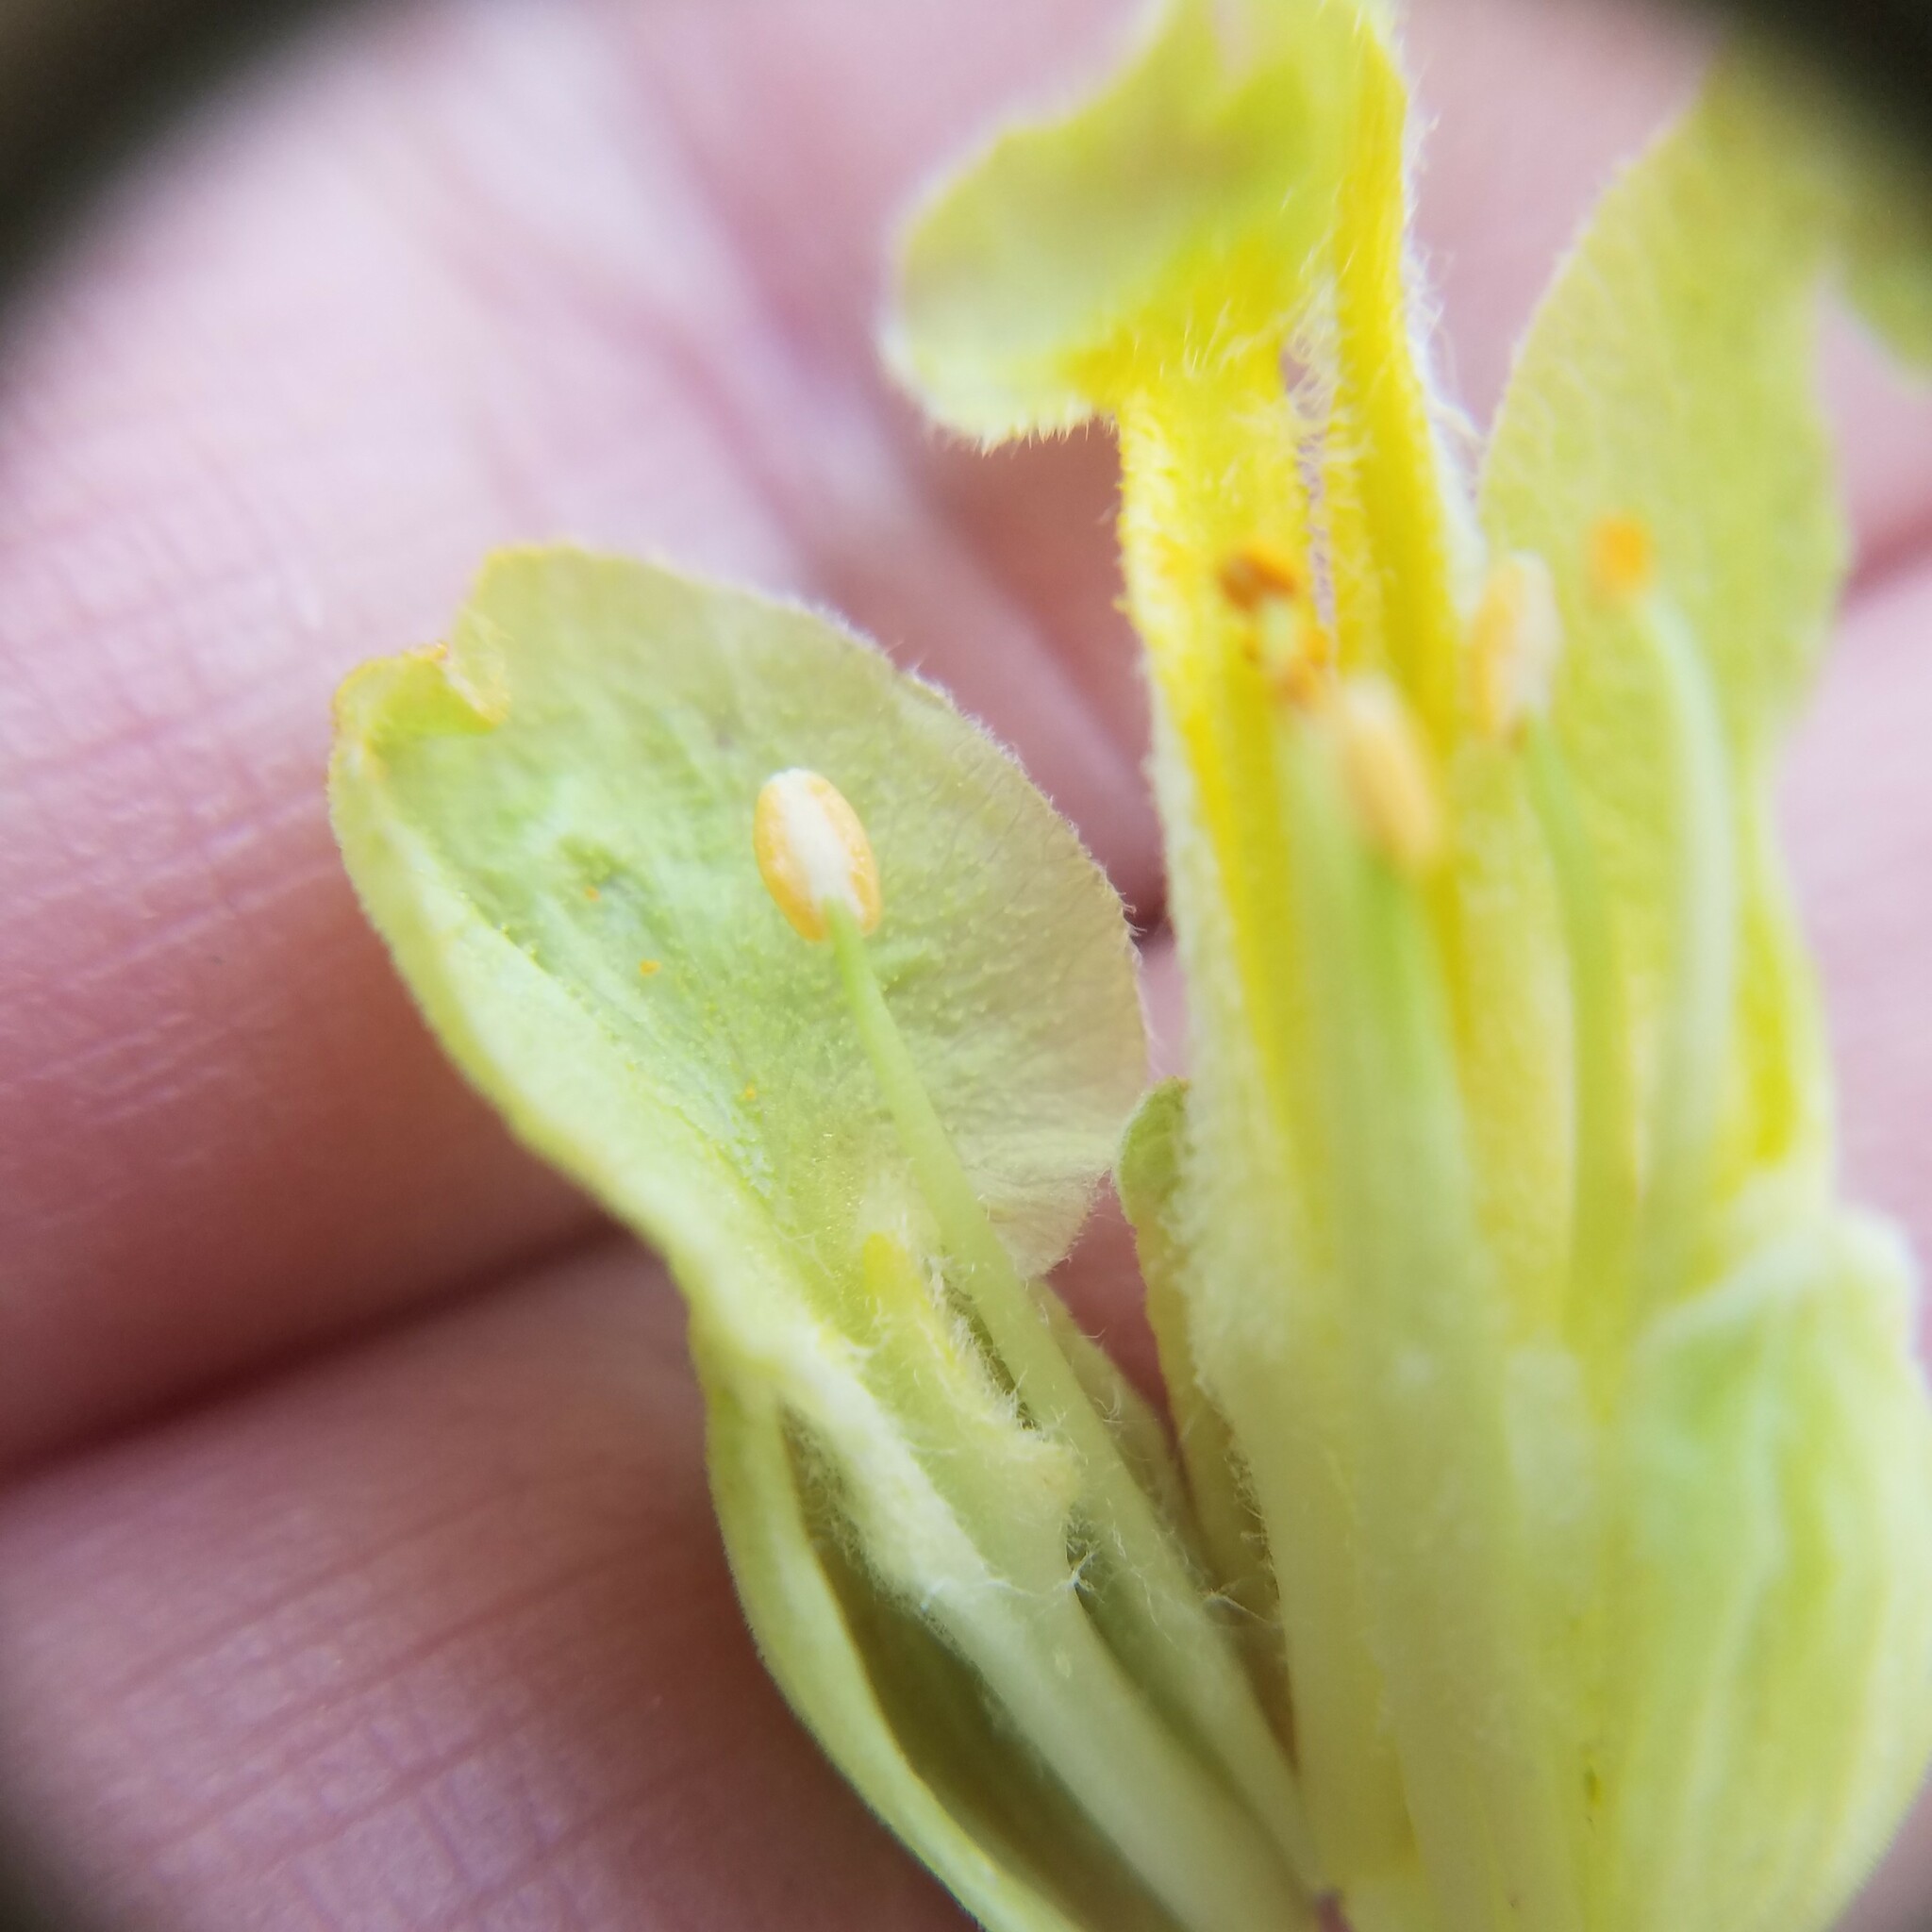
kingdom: Plantae
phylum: Tracheophyta
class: Magnoliopsida
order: Sapindales
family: Sapindaceae
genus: Aesculus
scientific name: Aesculus sylvatica
